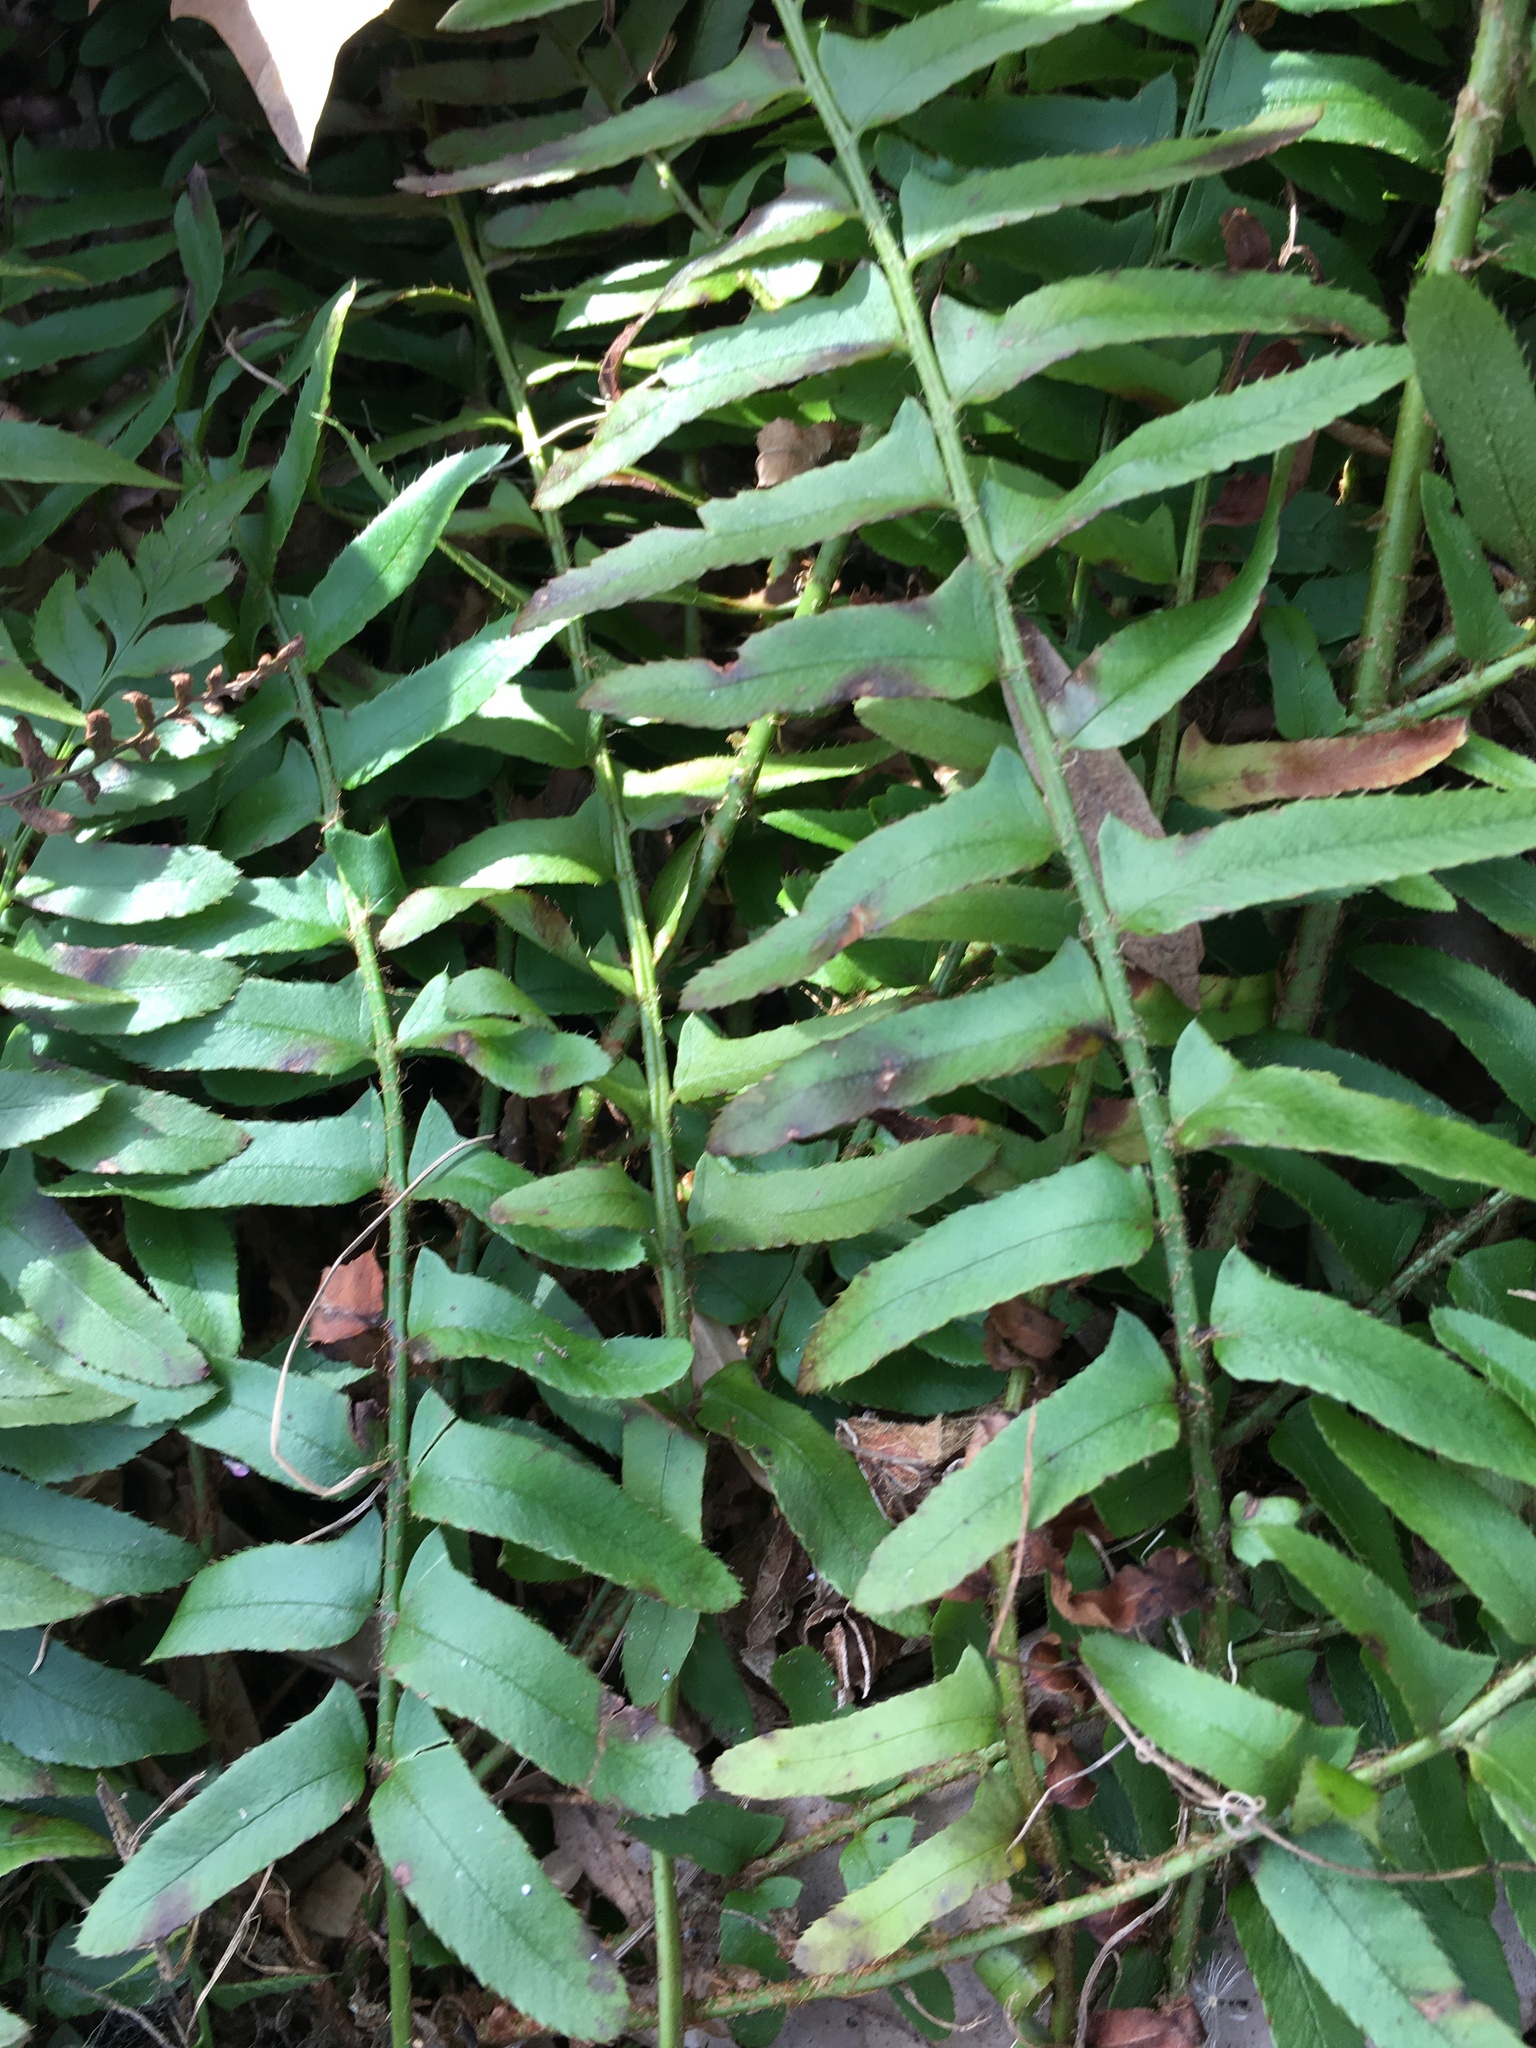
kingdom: Plantae
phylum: Tracheophyta
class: Polypodiopsida
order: Polypodiales
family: Dryopteridaceae
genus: Polystichum
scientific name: Polystichum acrostichoides
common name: Christmas fern
